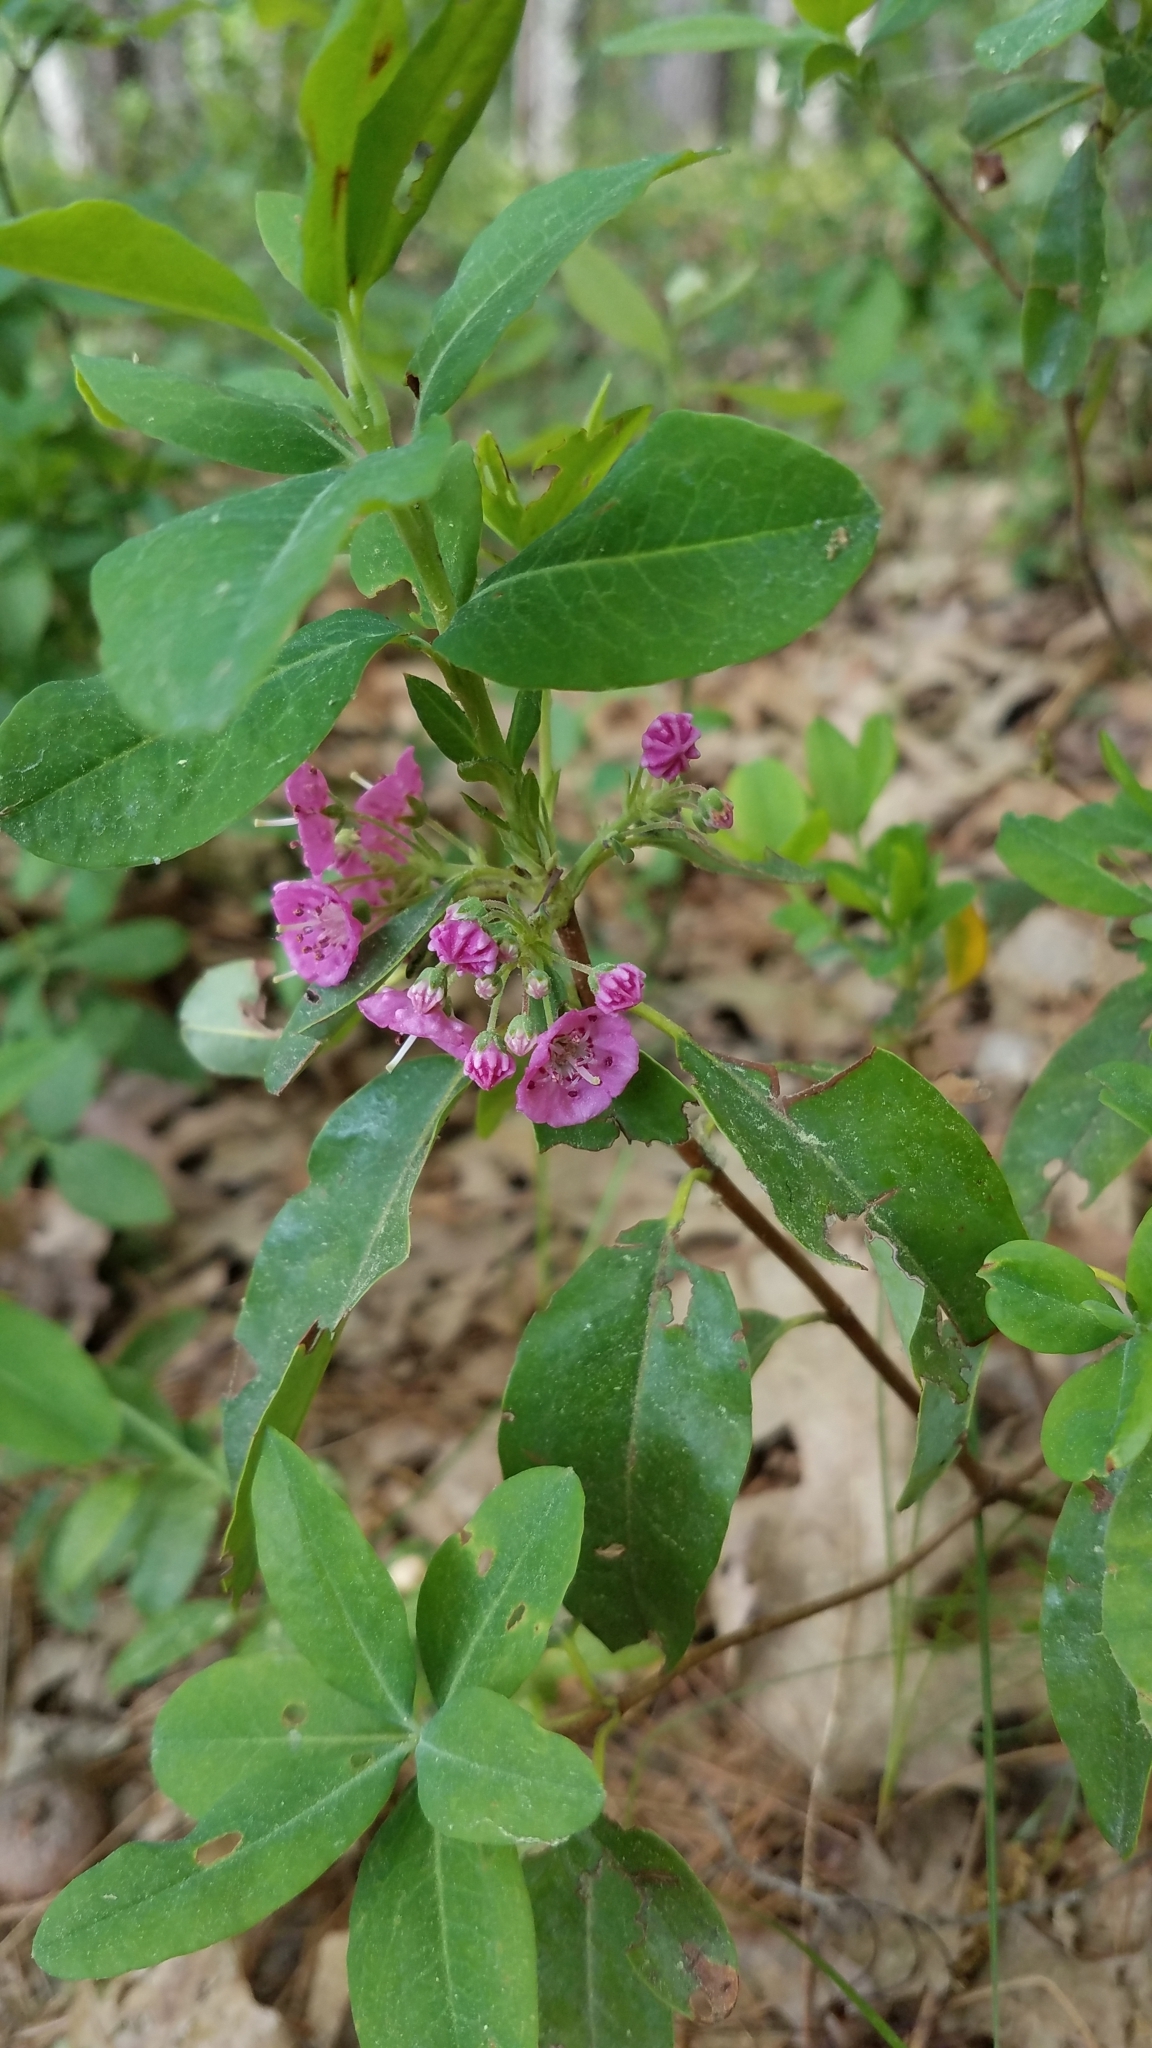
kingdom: Plantae
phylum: Tracheophyta
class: Magnoliopsida
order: Ericales
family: Ericaceae
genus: Kalmia
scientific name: Kalmia angustifolia
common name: Sheep-laurel
